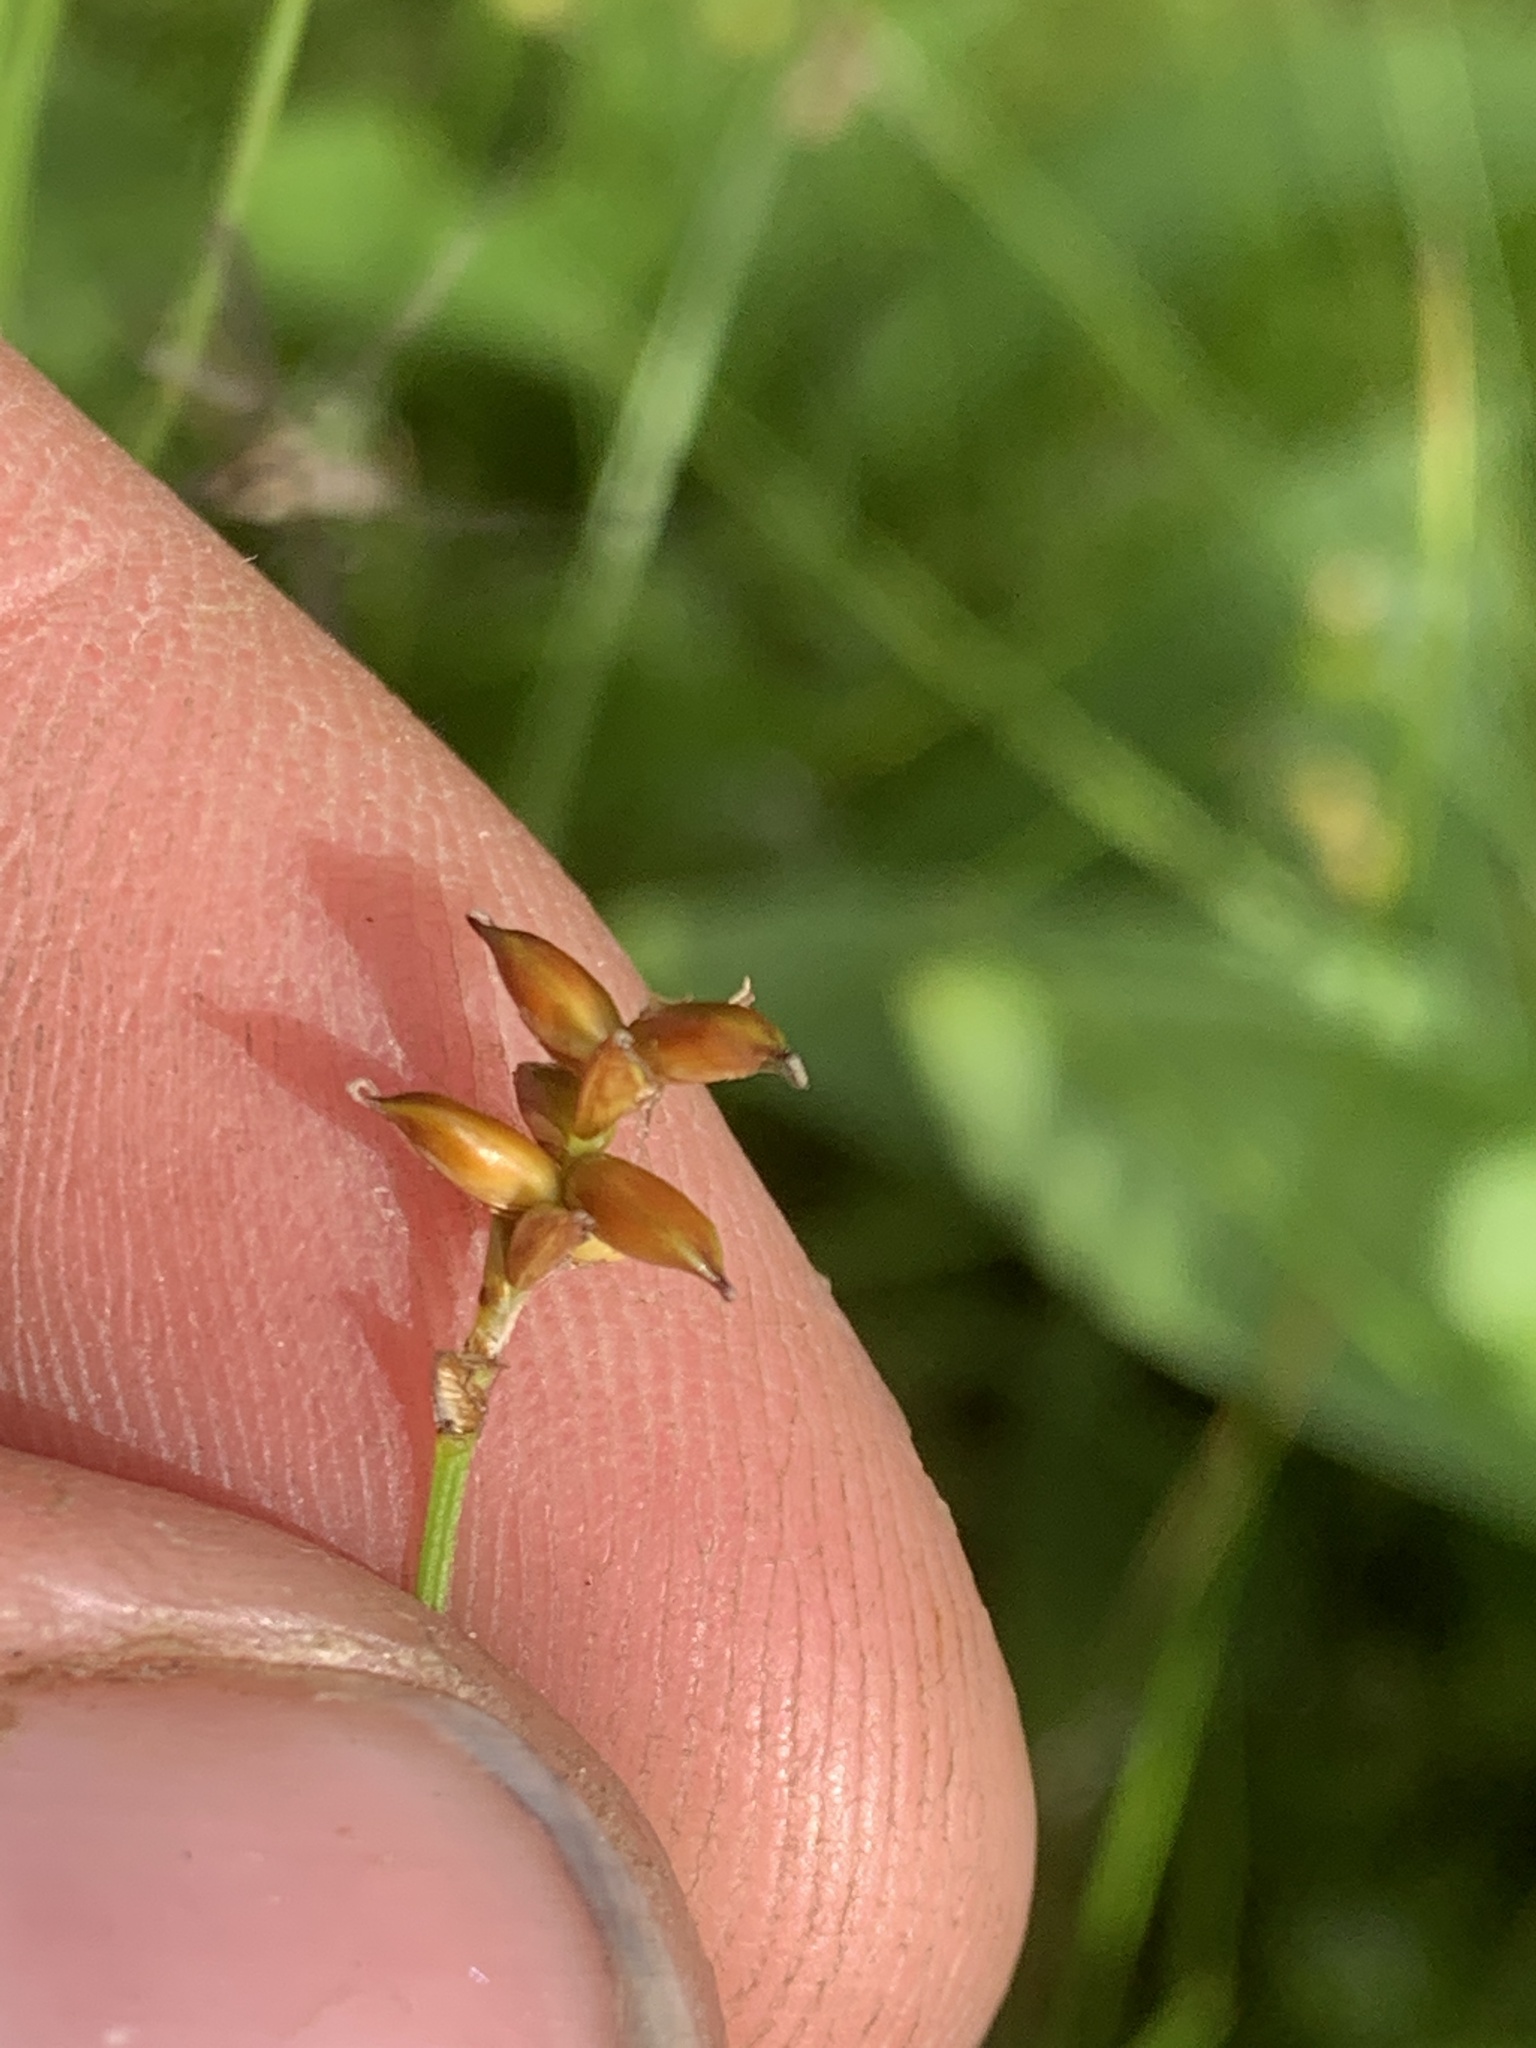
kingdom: Plantae
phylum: Tracheophyta
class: Liliopsida
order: Poales
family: Cyperaceae
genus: Carex
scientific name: Carex alascana
